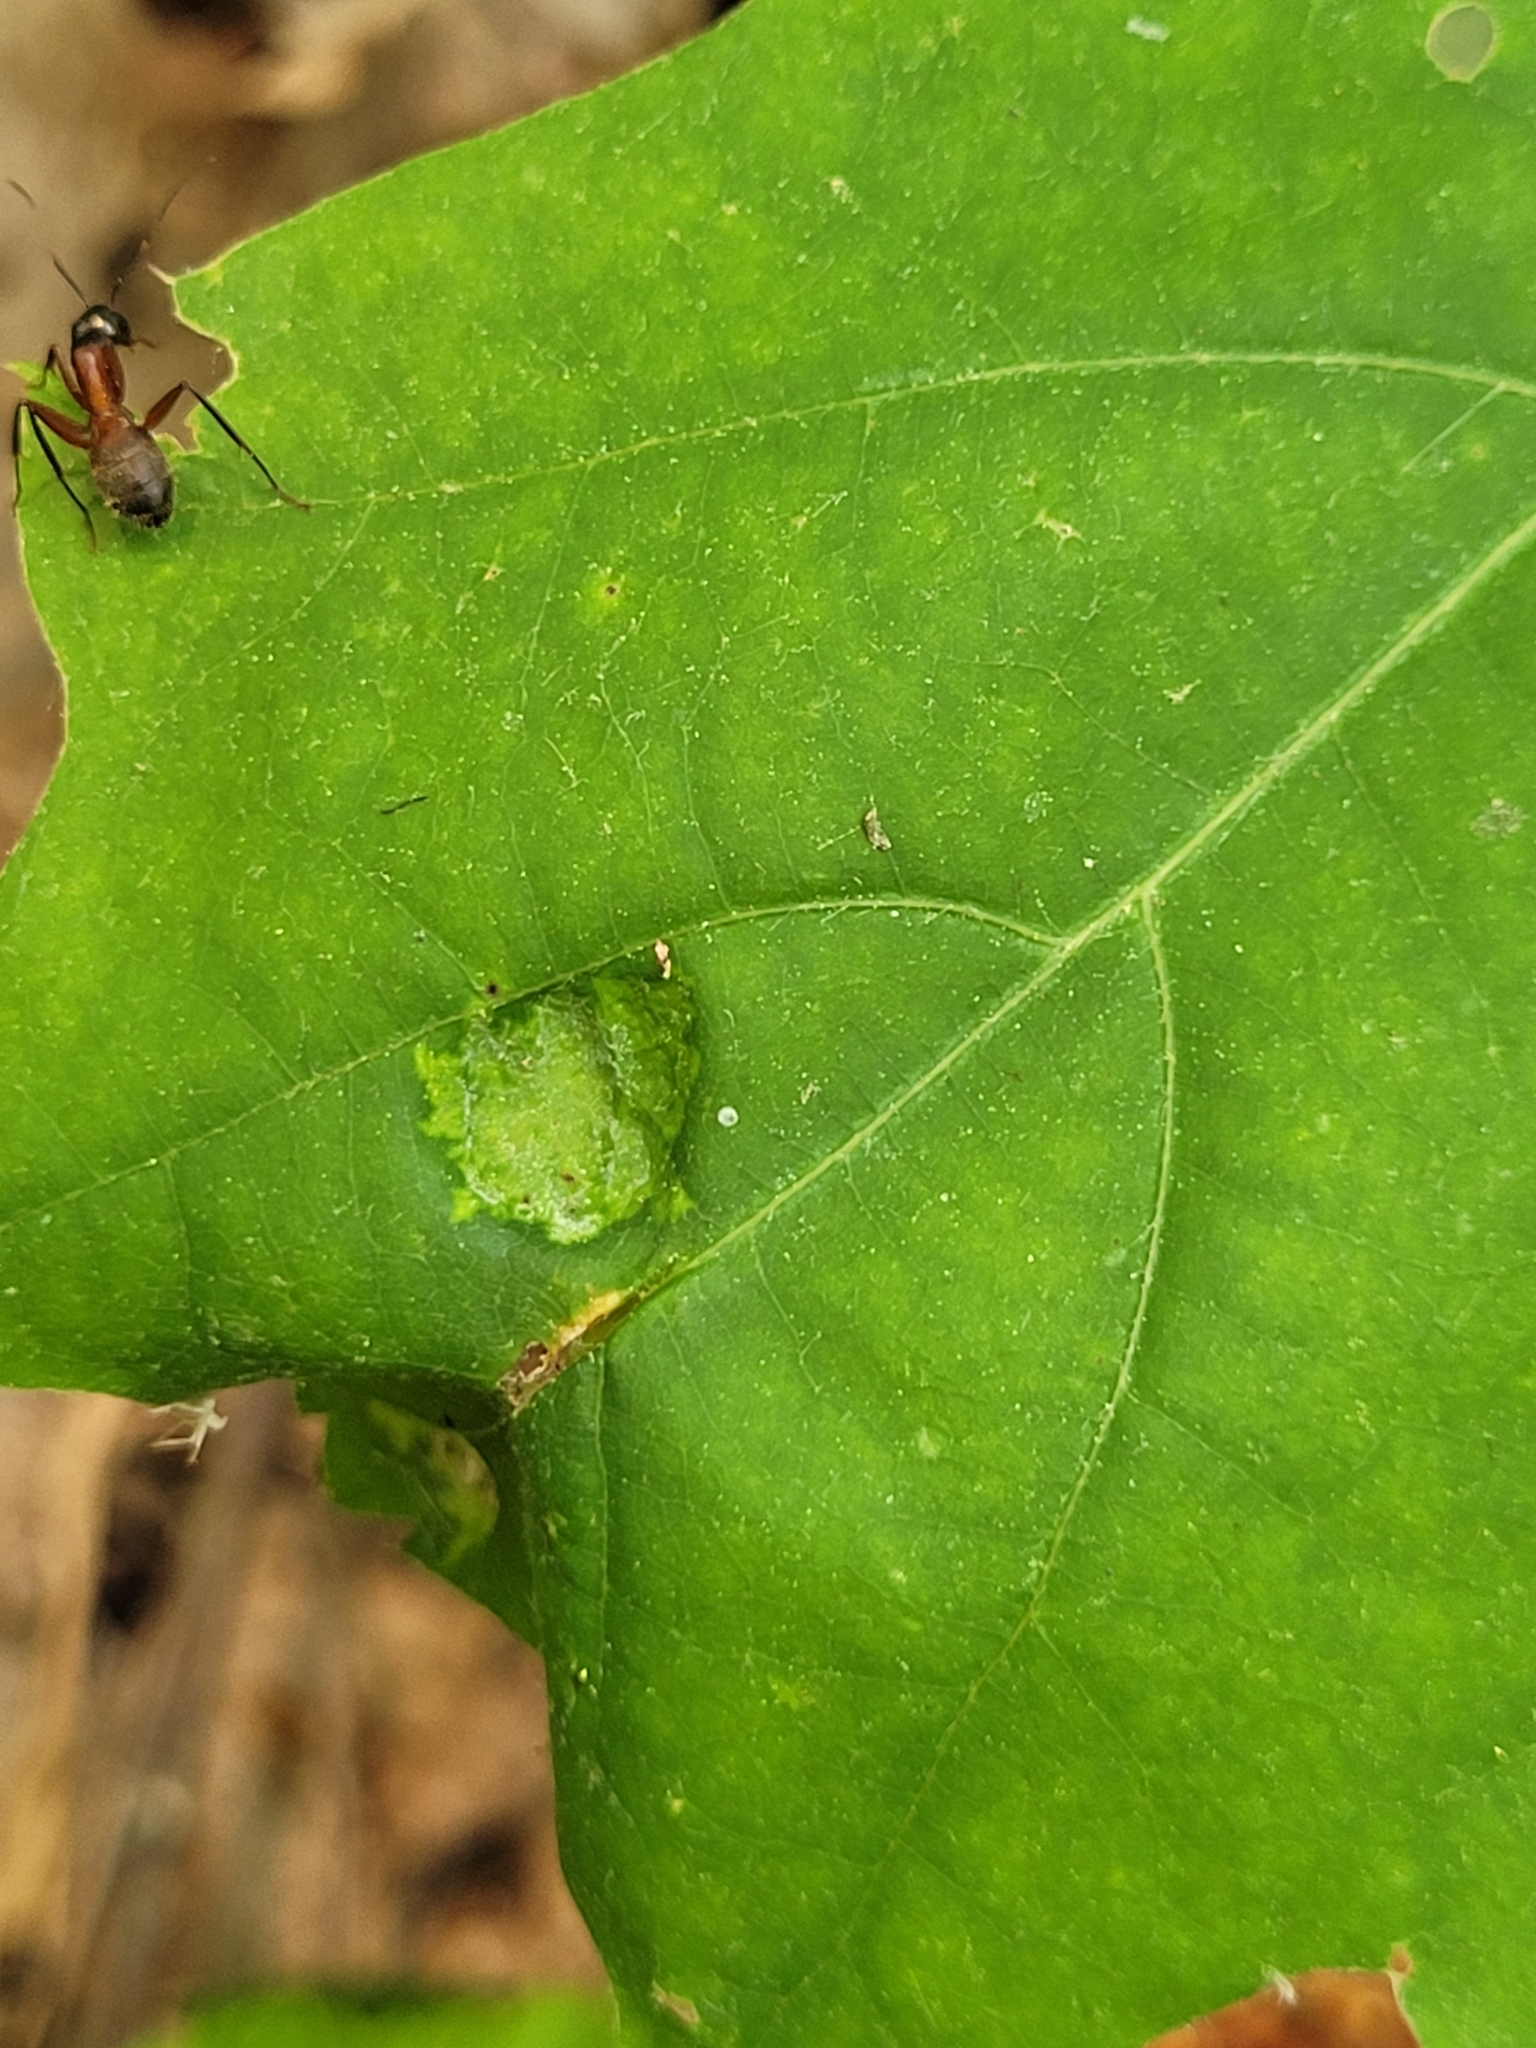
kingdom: Animalia
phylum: Arthropoda
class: Insecta
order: Hymenoptera
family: Formicidae
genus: Camponotus
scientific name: Camponotus chromaiodes
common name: Red carpenter ant
